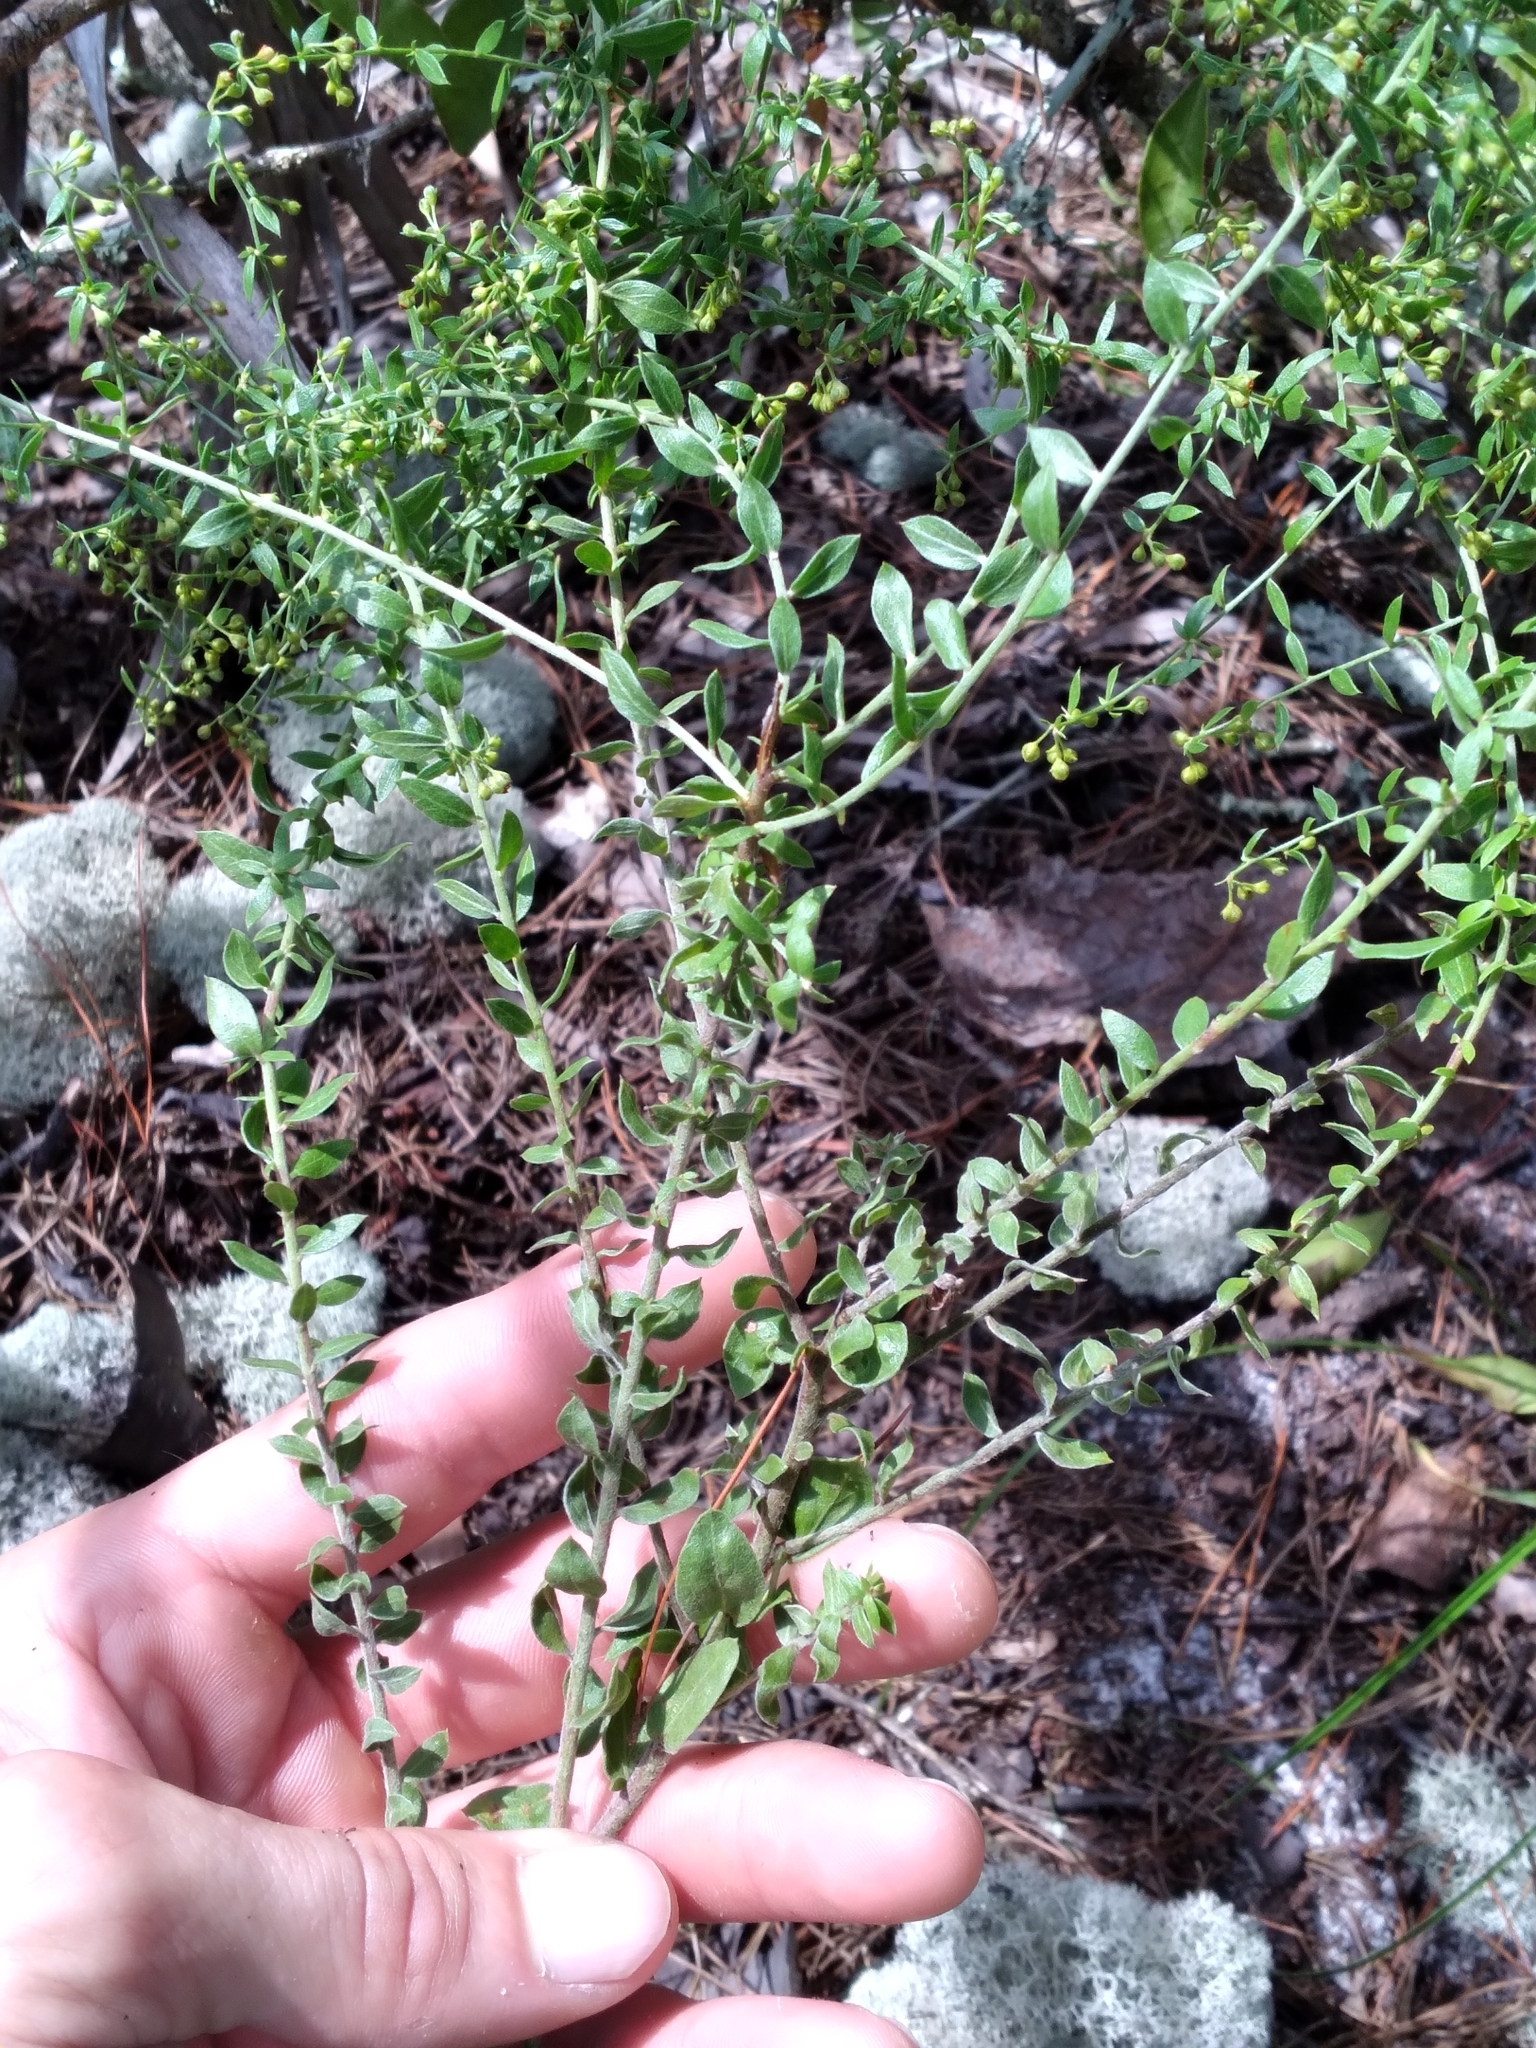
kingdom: Plantae
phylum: Tracheophyta
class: Magnoliopsida
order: Malvales
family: Cistaceae
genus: Lechea
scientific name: Lechea cernua
